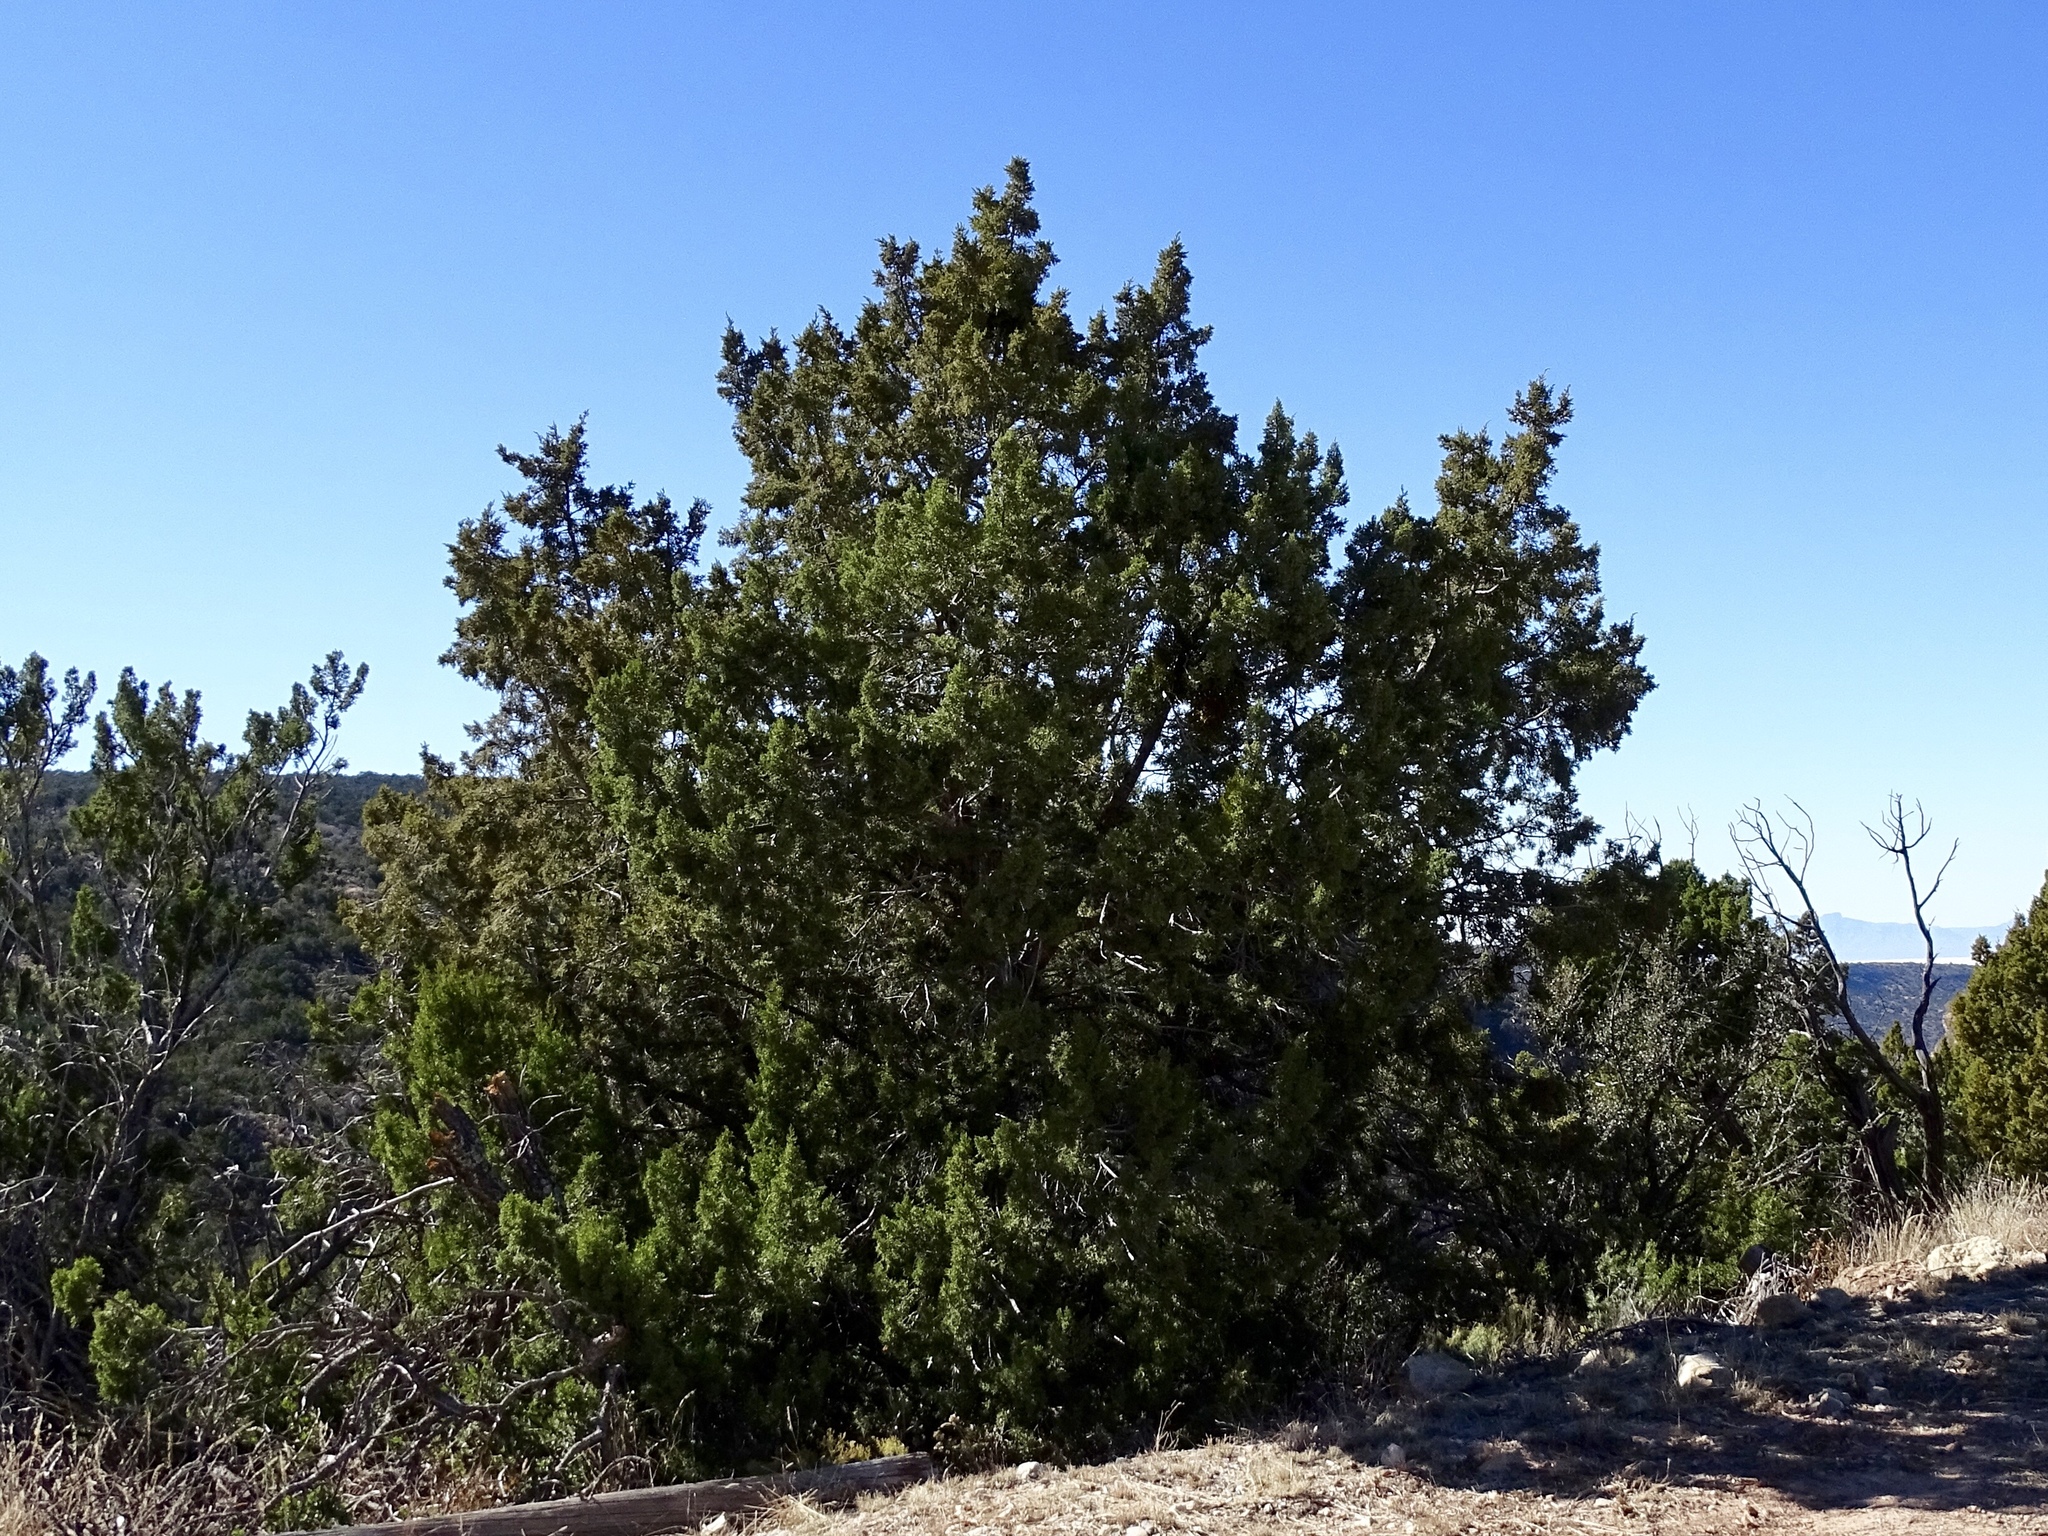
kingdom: Plantae
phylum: Tracheophyta
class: Pinopsida
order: Pinales
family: Cupressaceae
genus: Juniperus
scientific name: Juniperus monosperma
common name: One-seed juniper
